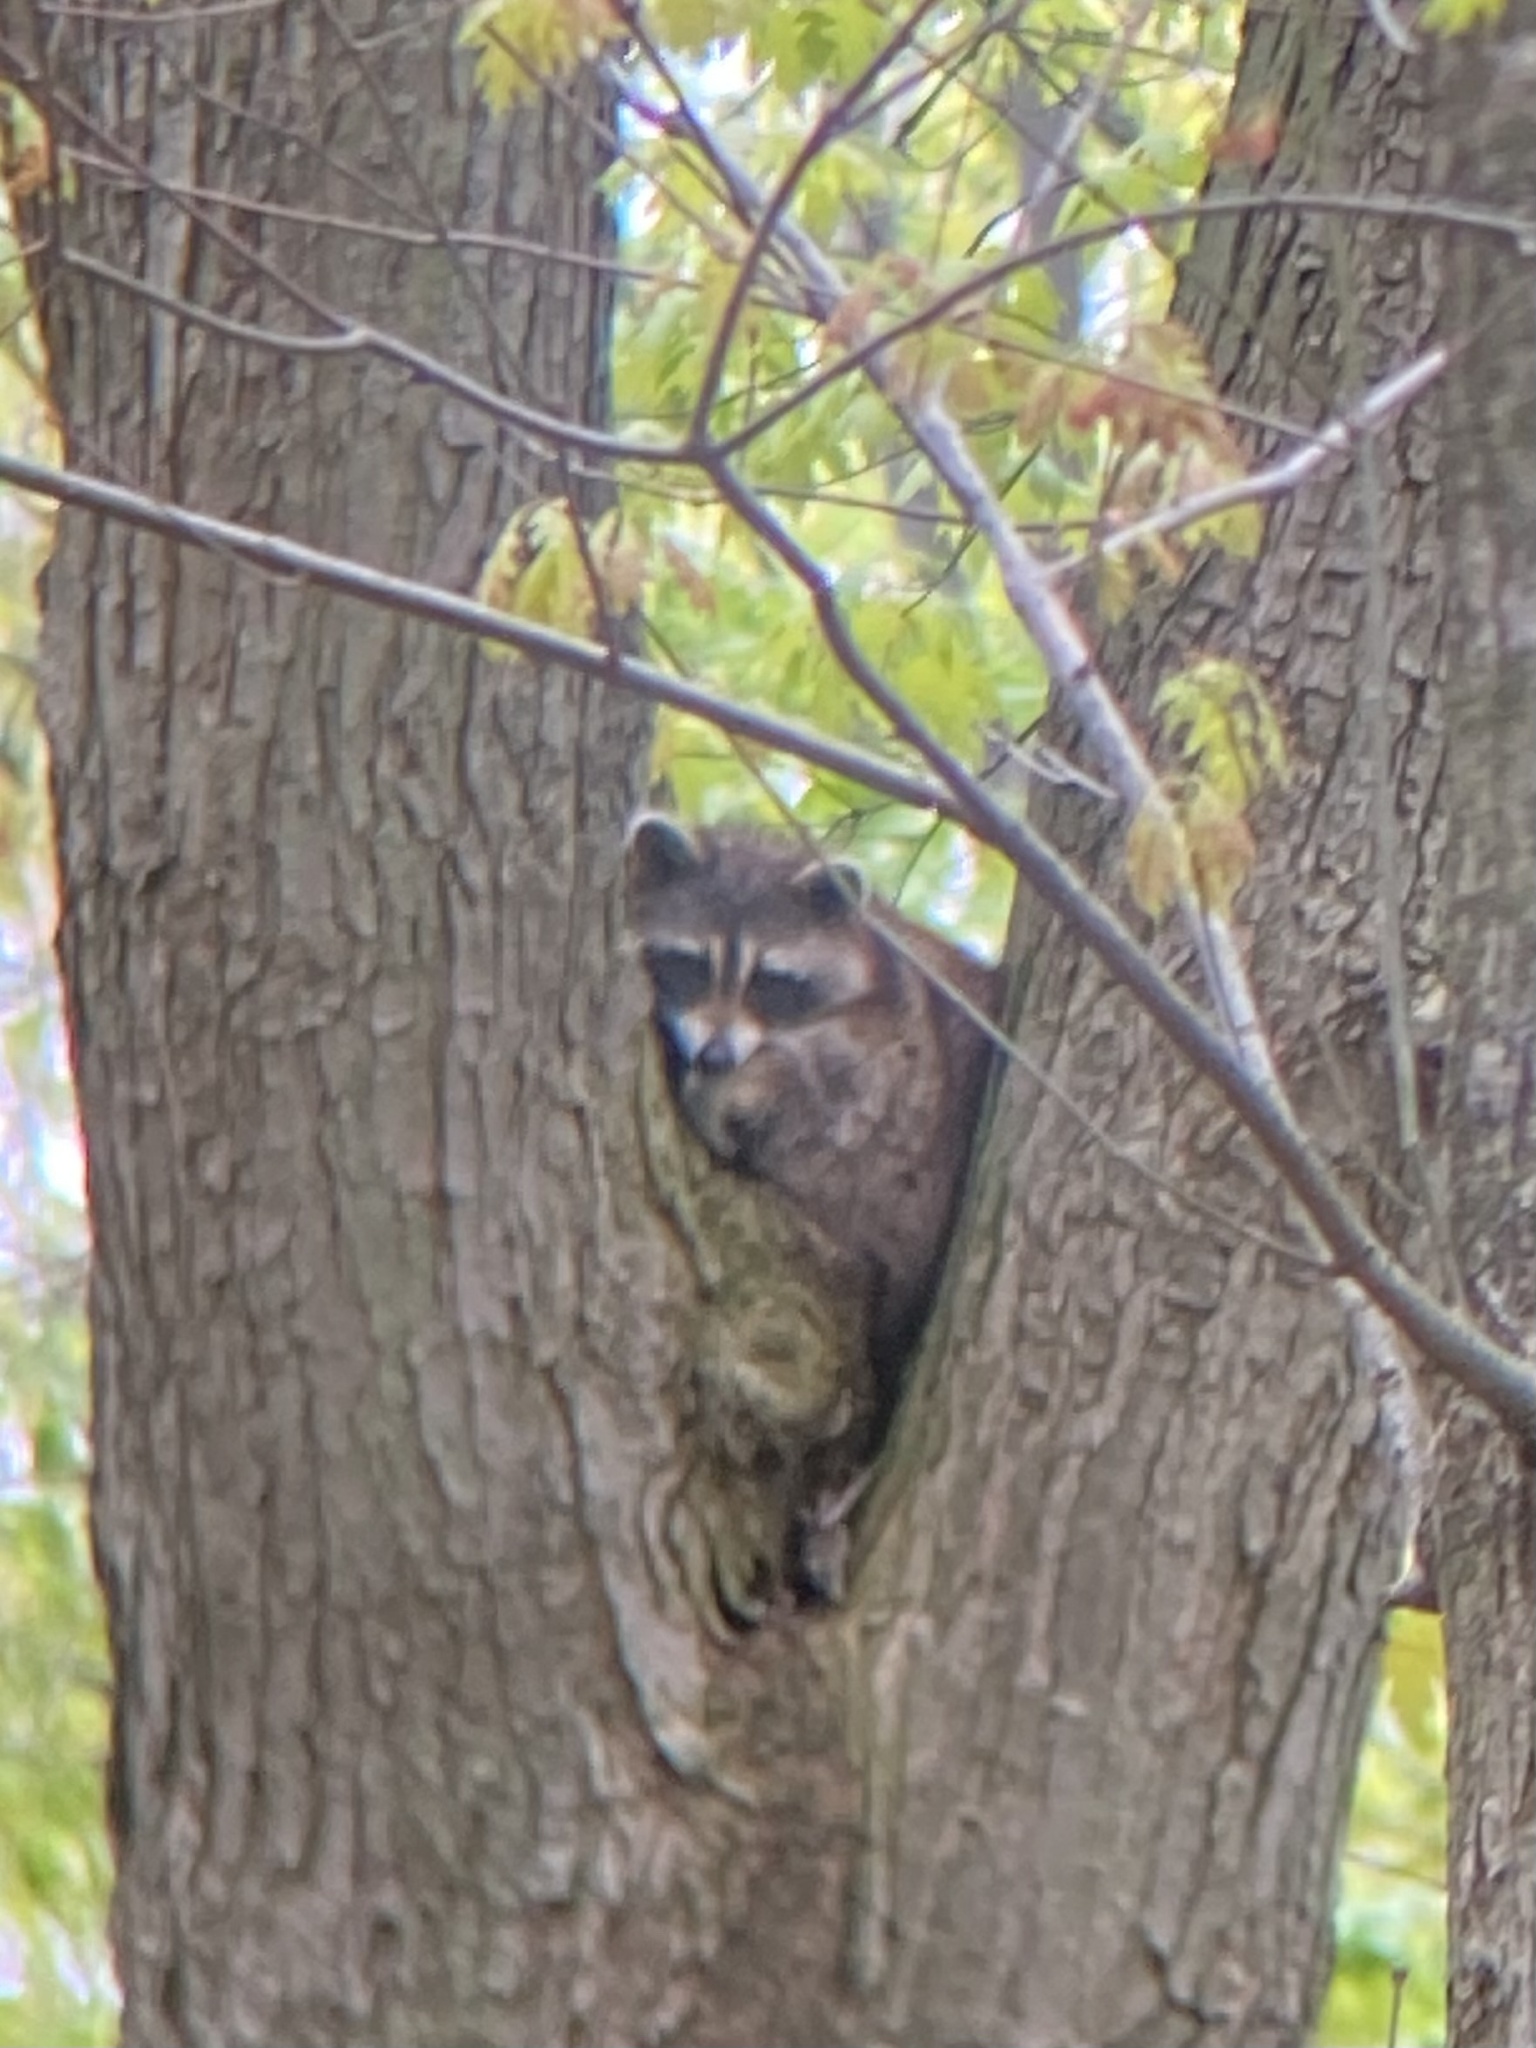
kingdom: Animalia
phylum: Chordata
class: Mammalia
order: Carnivora
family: Procyonidae
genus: Procyon
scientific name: Procyon lotor
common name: Raccoon
